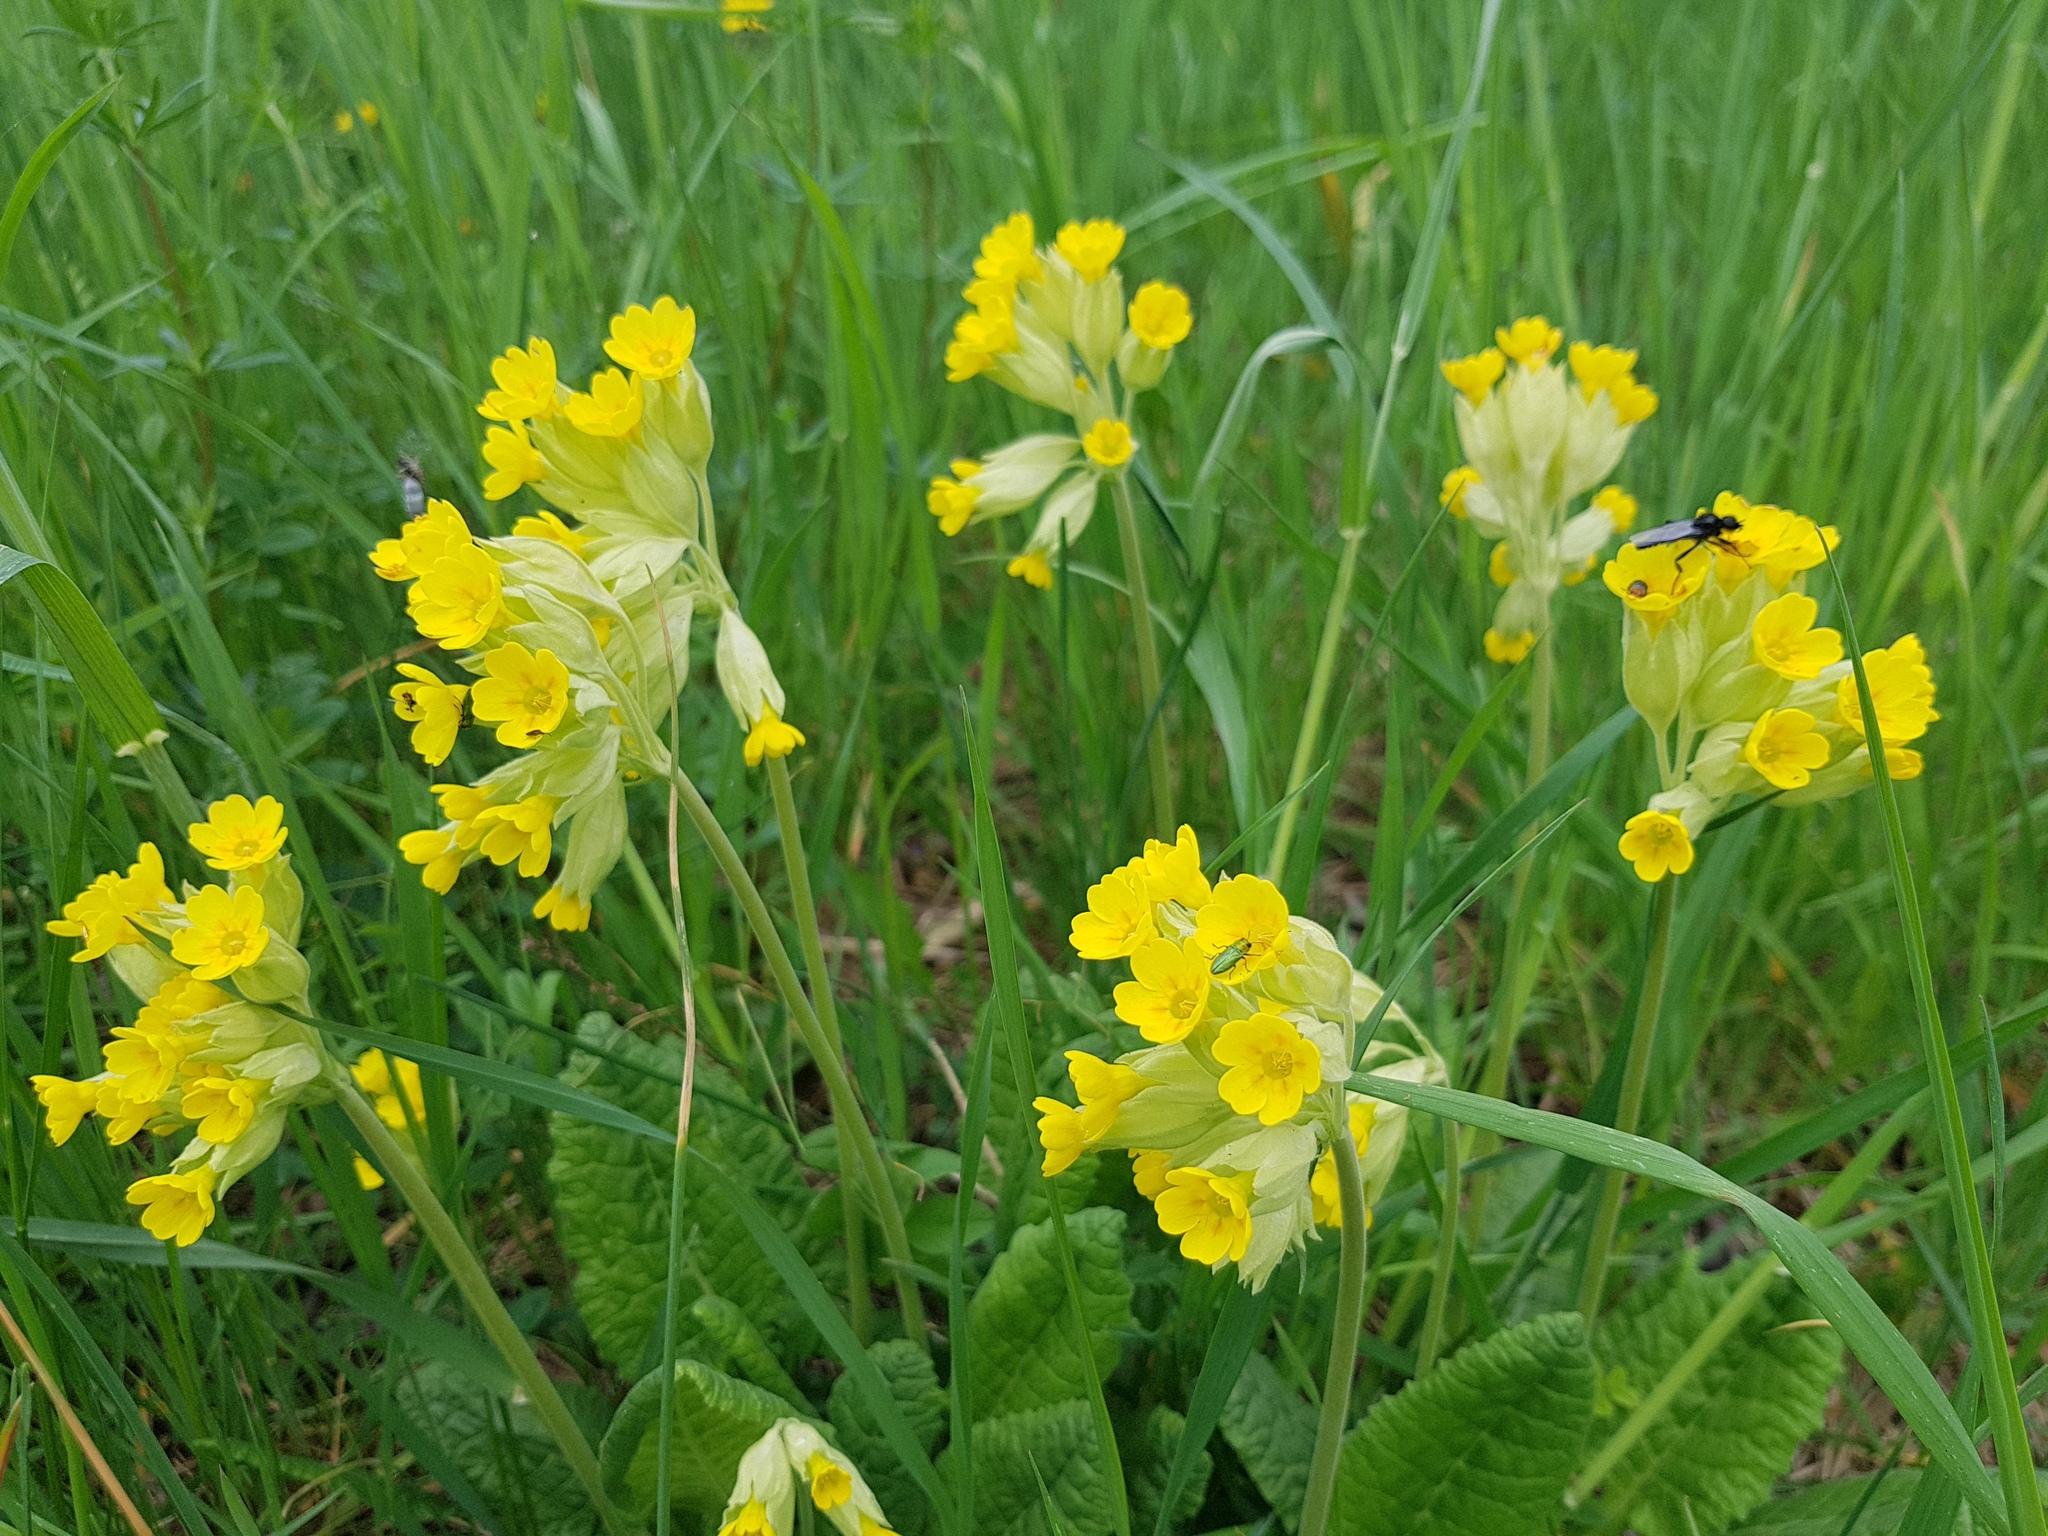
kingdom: Plantae
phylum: Tracheophyta
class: Magnoliopsida
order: Ericales
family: Primulaceae
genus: Primula
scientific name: Primula veris
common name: Cowslip
